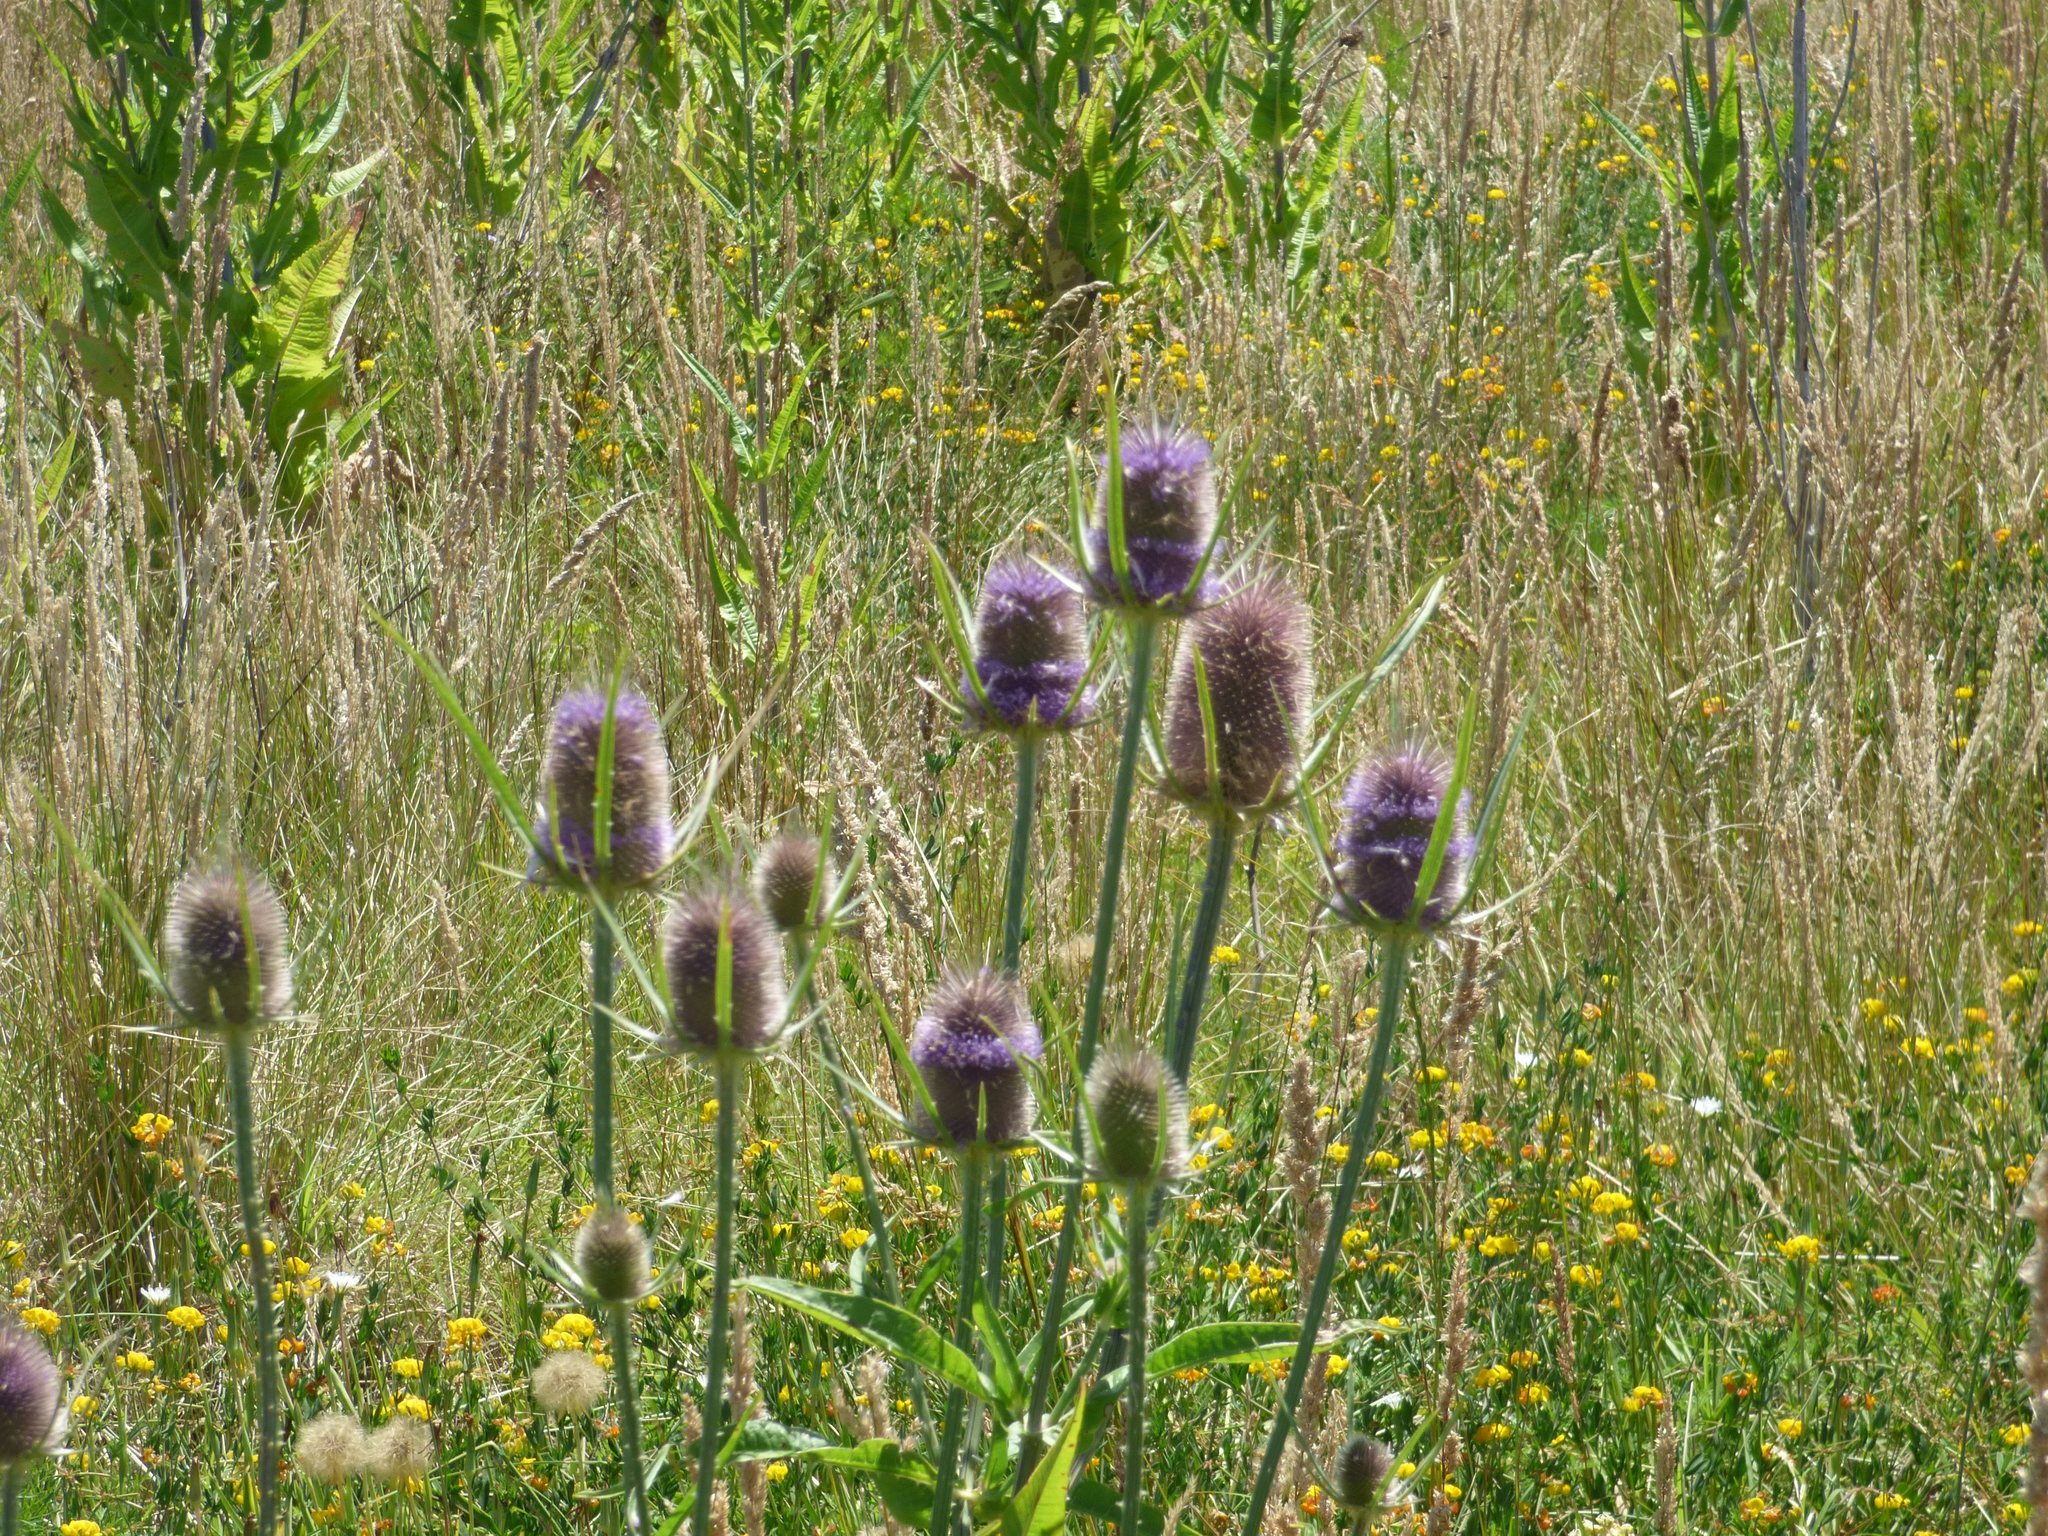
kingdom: Plantae
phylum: Tracheophyta
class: Magnoliopsida
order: Dipsacales
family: Caprifoliaceae
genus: Dipsacus
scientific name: Dipsacus fullonum
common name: Teasel
